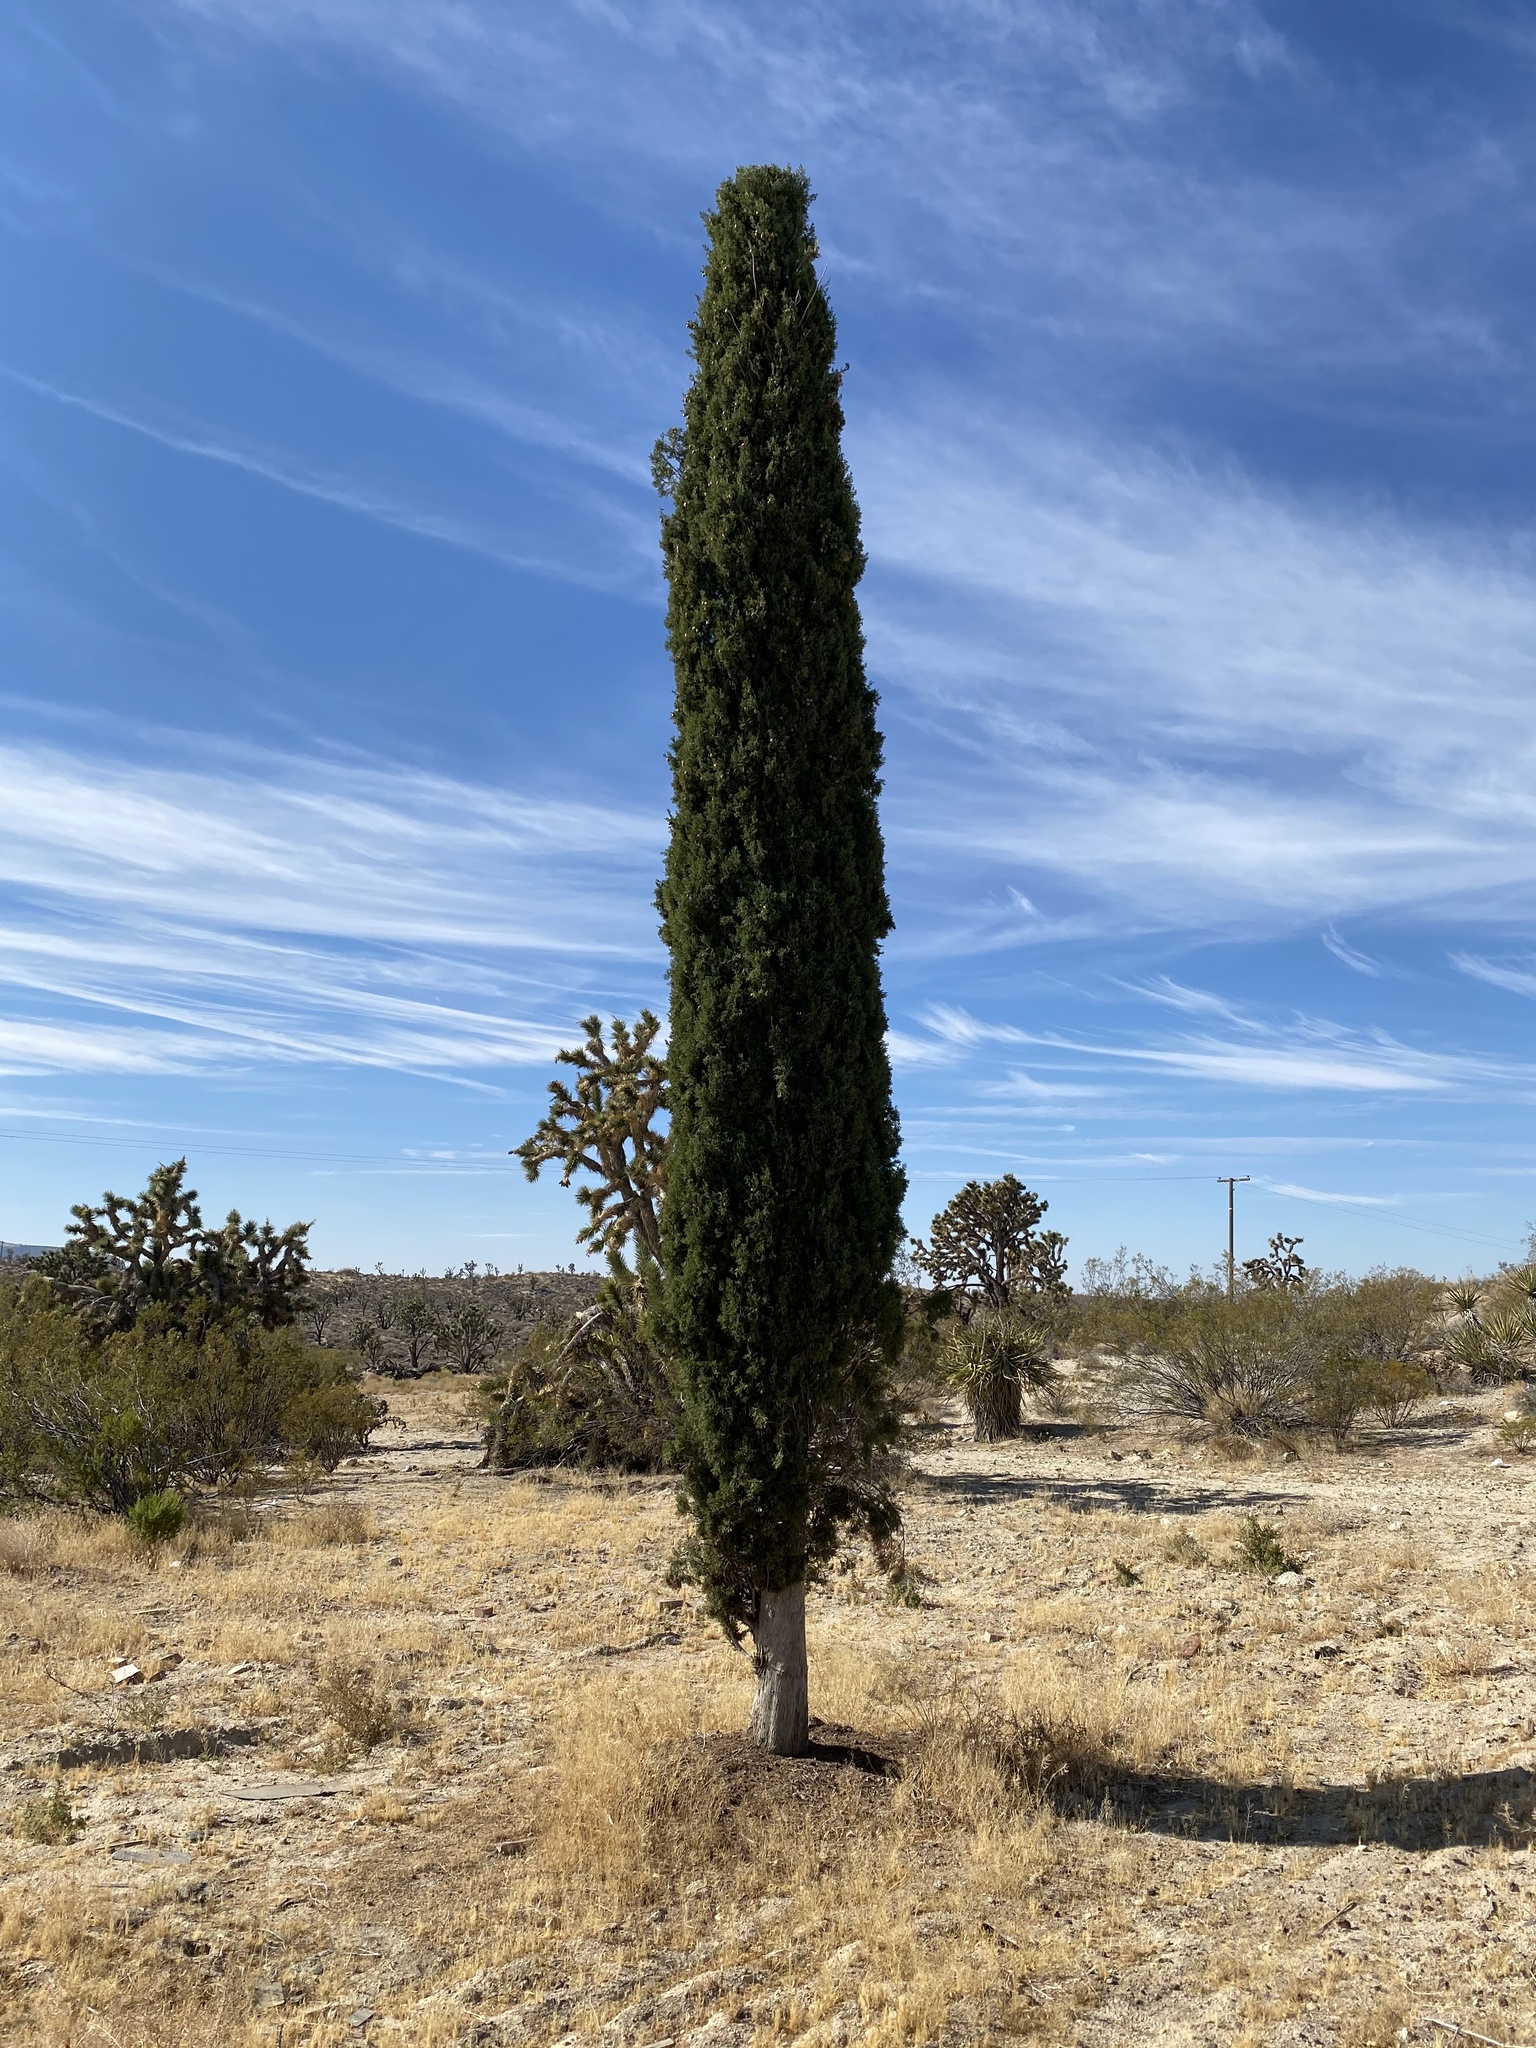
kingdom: Plantae
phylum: Tracheophyta
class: Pinopsida
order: Pinales
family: Cupressaceae
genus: Cupressus
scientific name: Cupressus sempervirens
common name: Italian cypress
